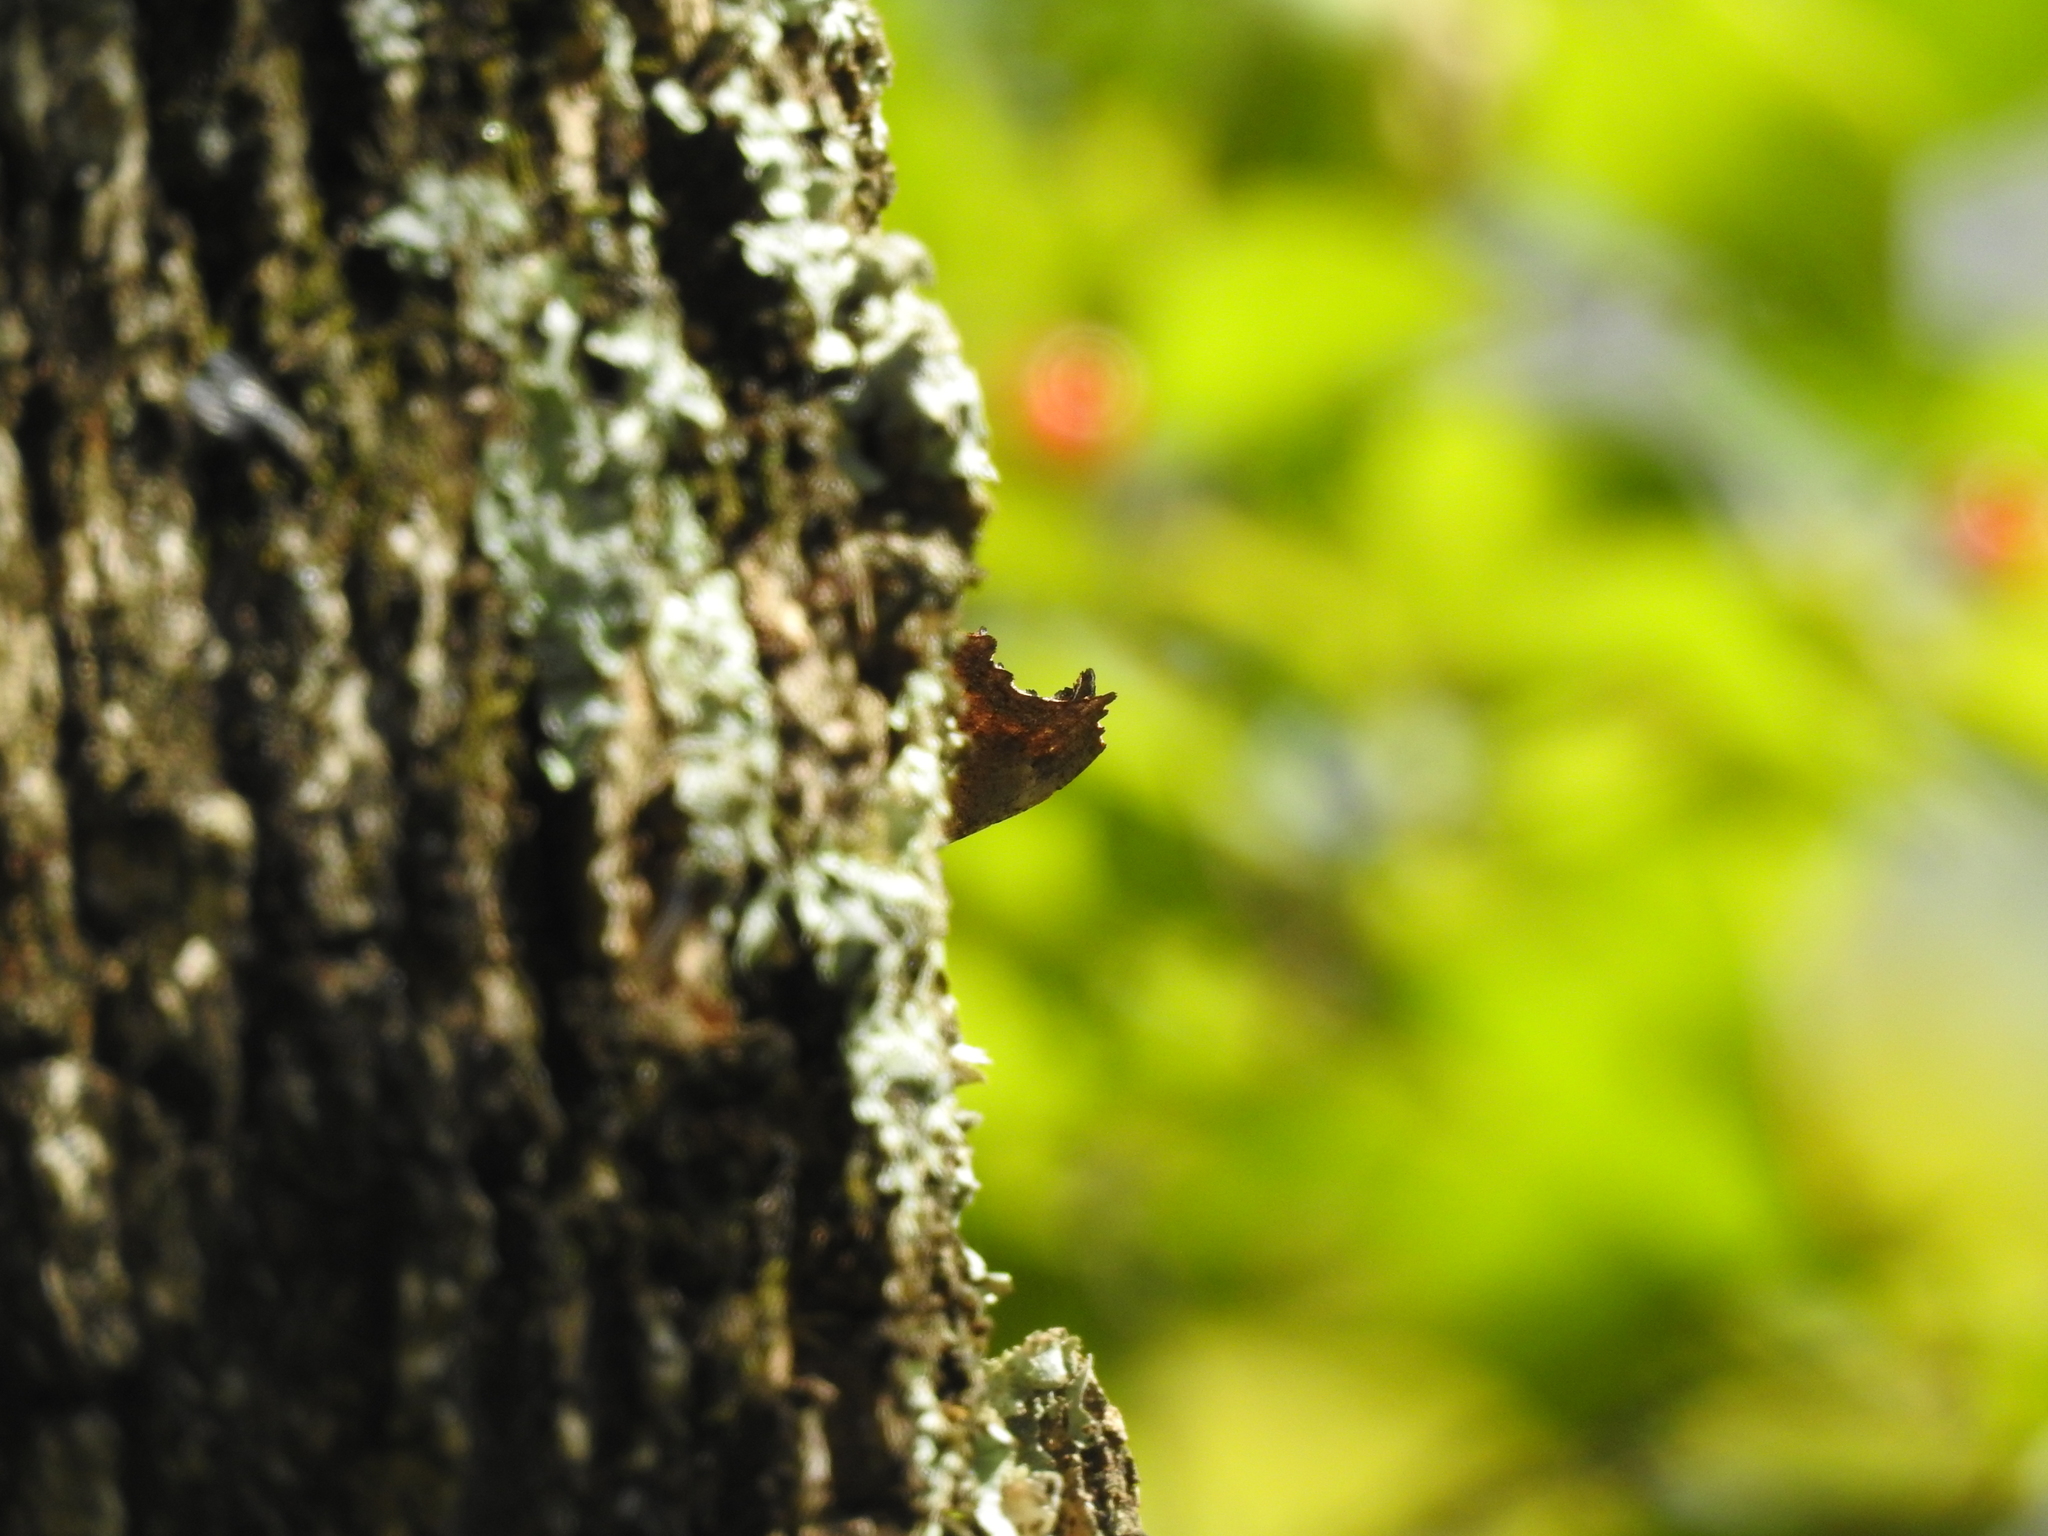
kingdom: Animalia
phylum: Arthropoda
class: Insecta
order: Lepidoptera
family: Nymphalidae
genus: Polygonia
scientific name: Polygonia comma
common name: Eastern comma
